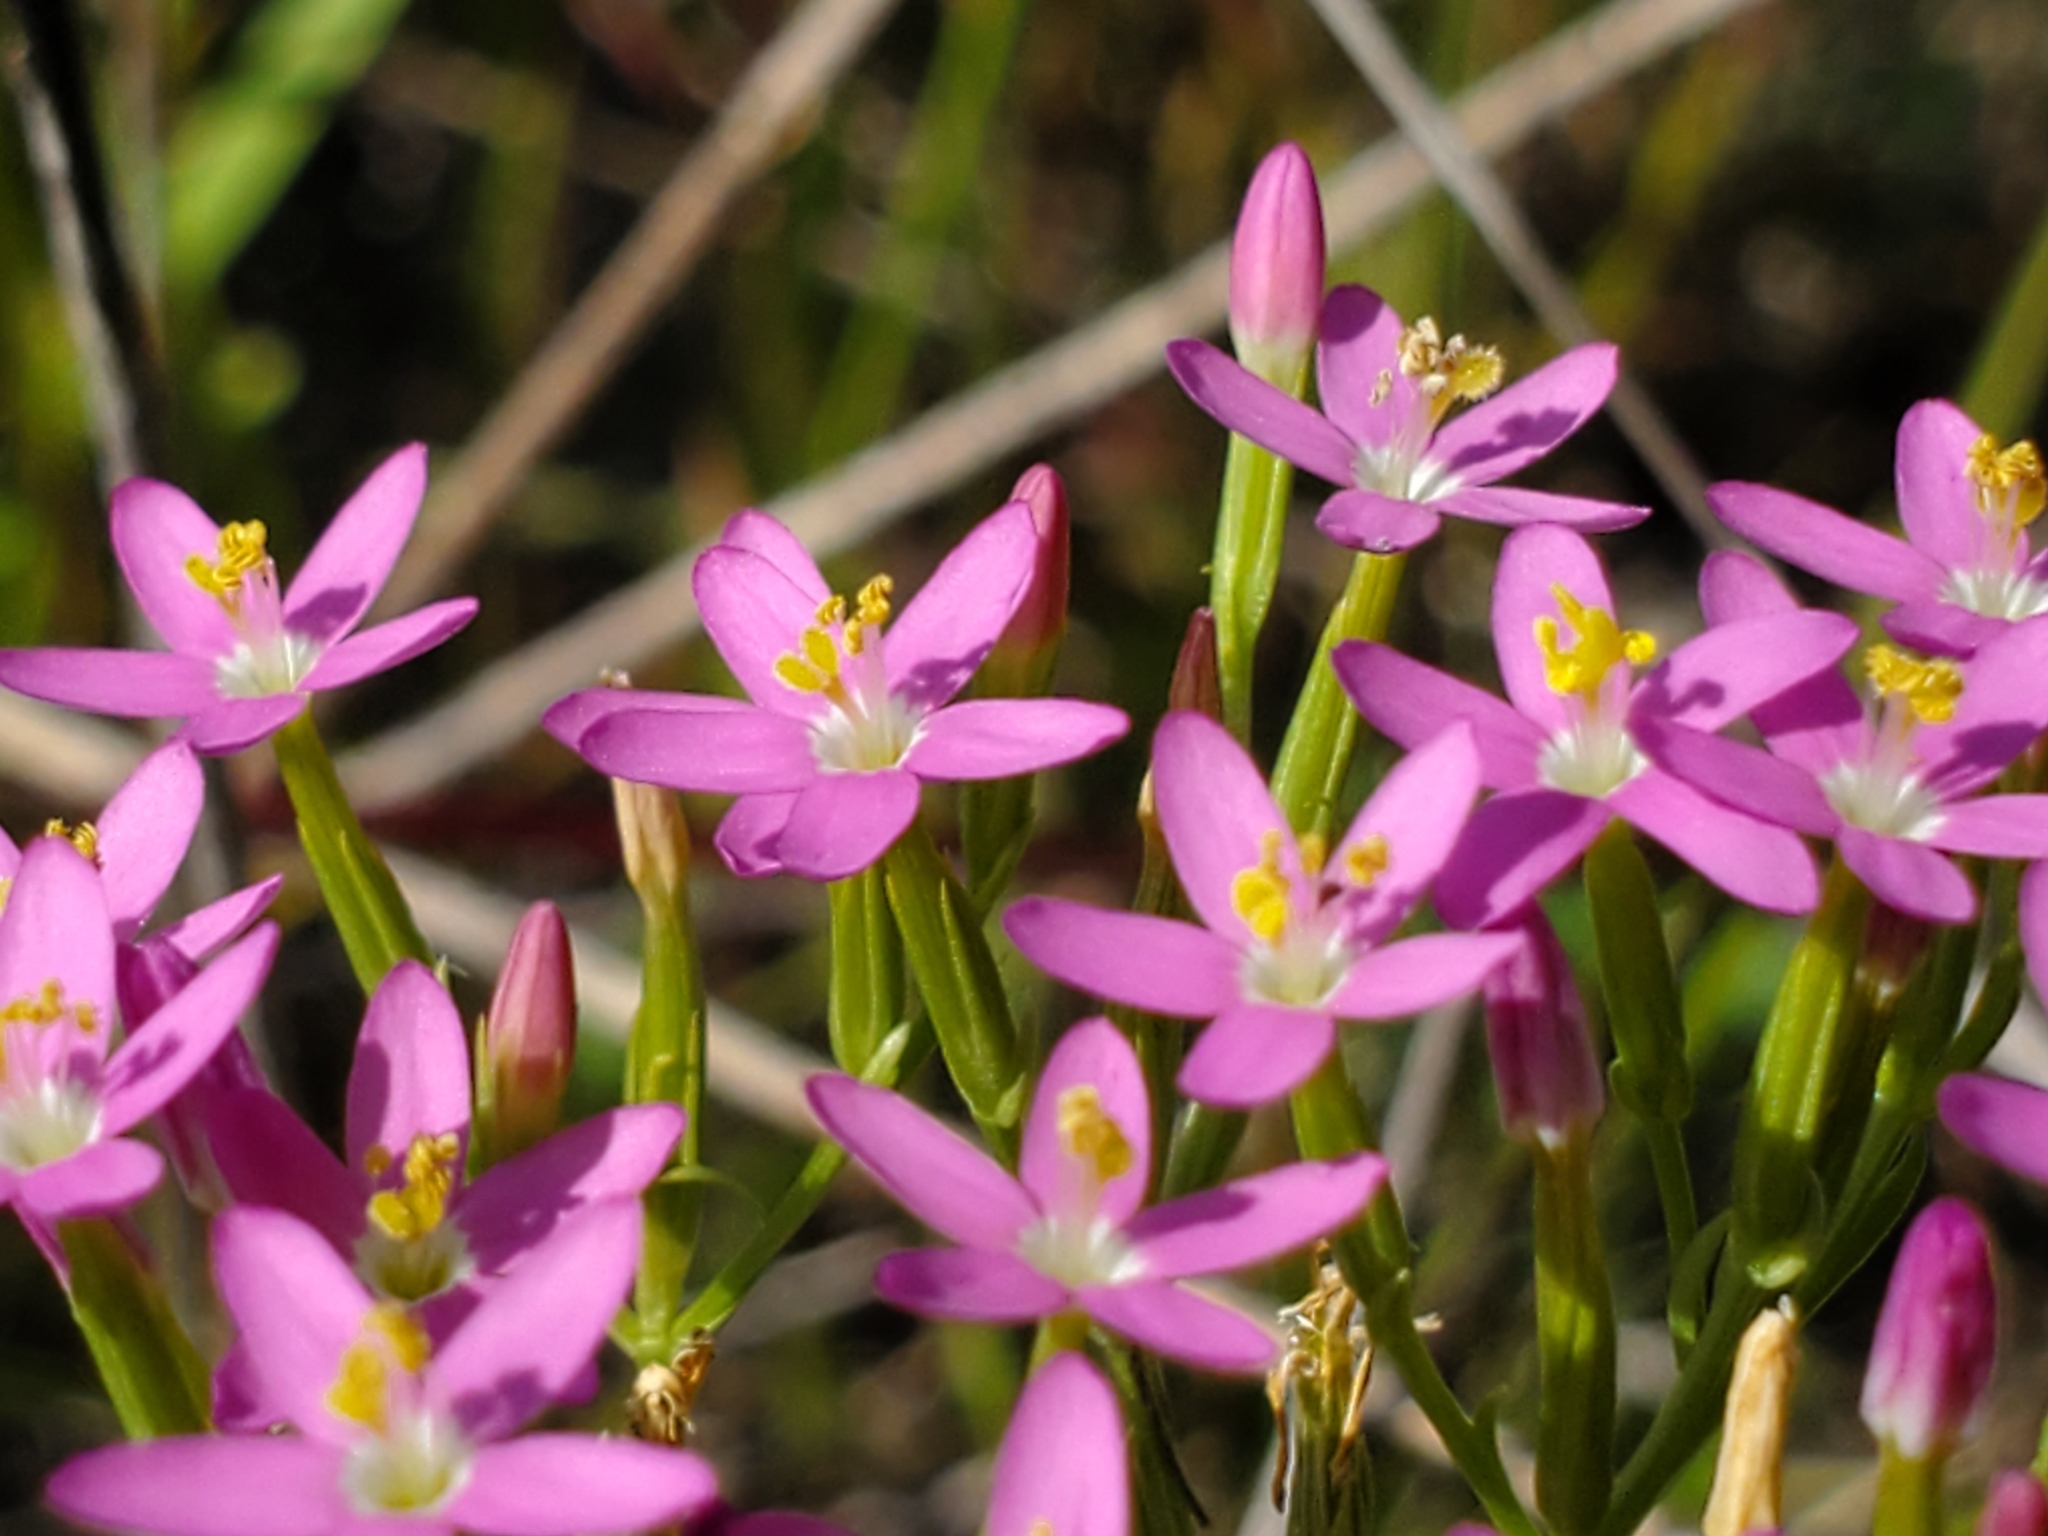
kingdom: Plantae
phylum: Tracheophyta
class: Magnoliopsida
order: Gentianales
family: Gentianaceae
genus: Centaurium
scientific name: Centaurium erythraea
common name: Common centaury
